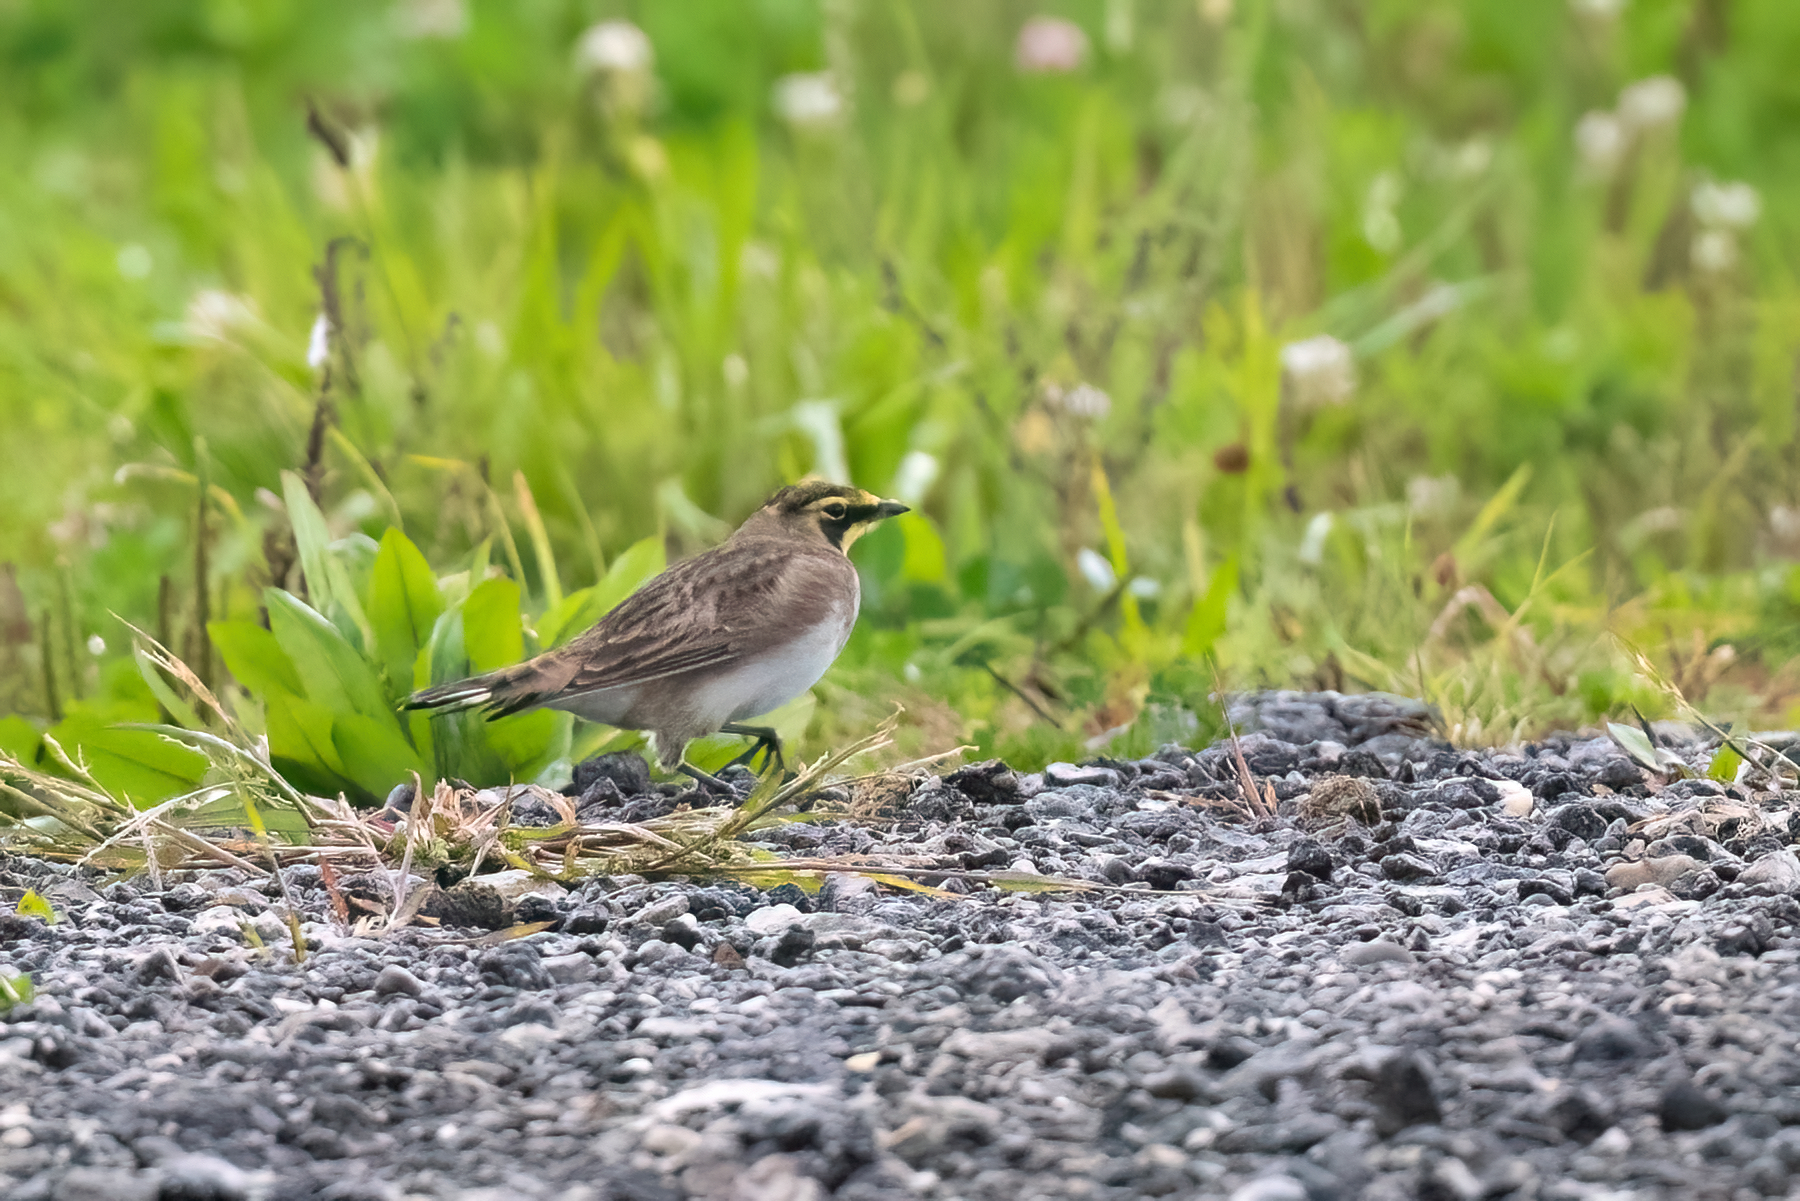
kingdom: Animalia
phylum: Chordata
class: Aves
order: Passeriformes
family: Alaudidae
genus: Eremophila
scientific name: Eremophila alpestris
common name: Horned lark
